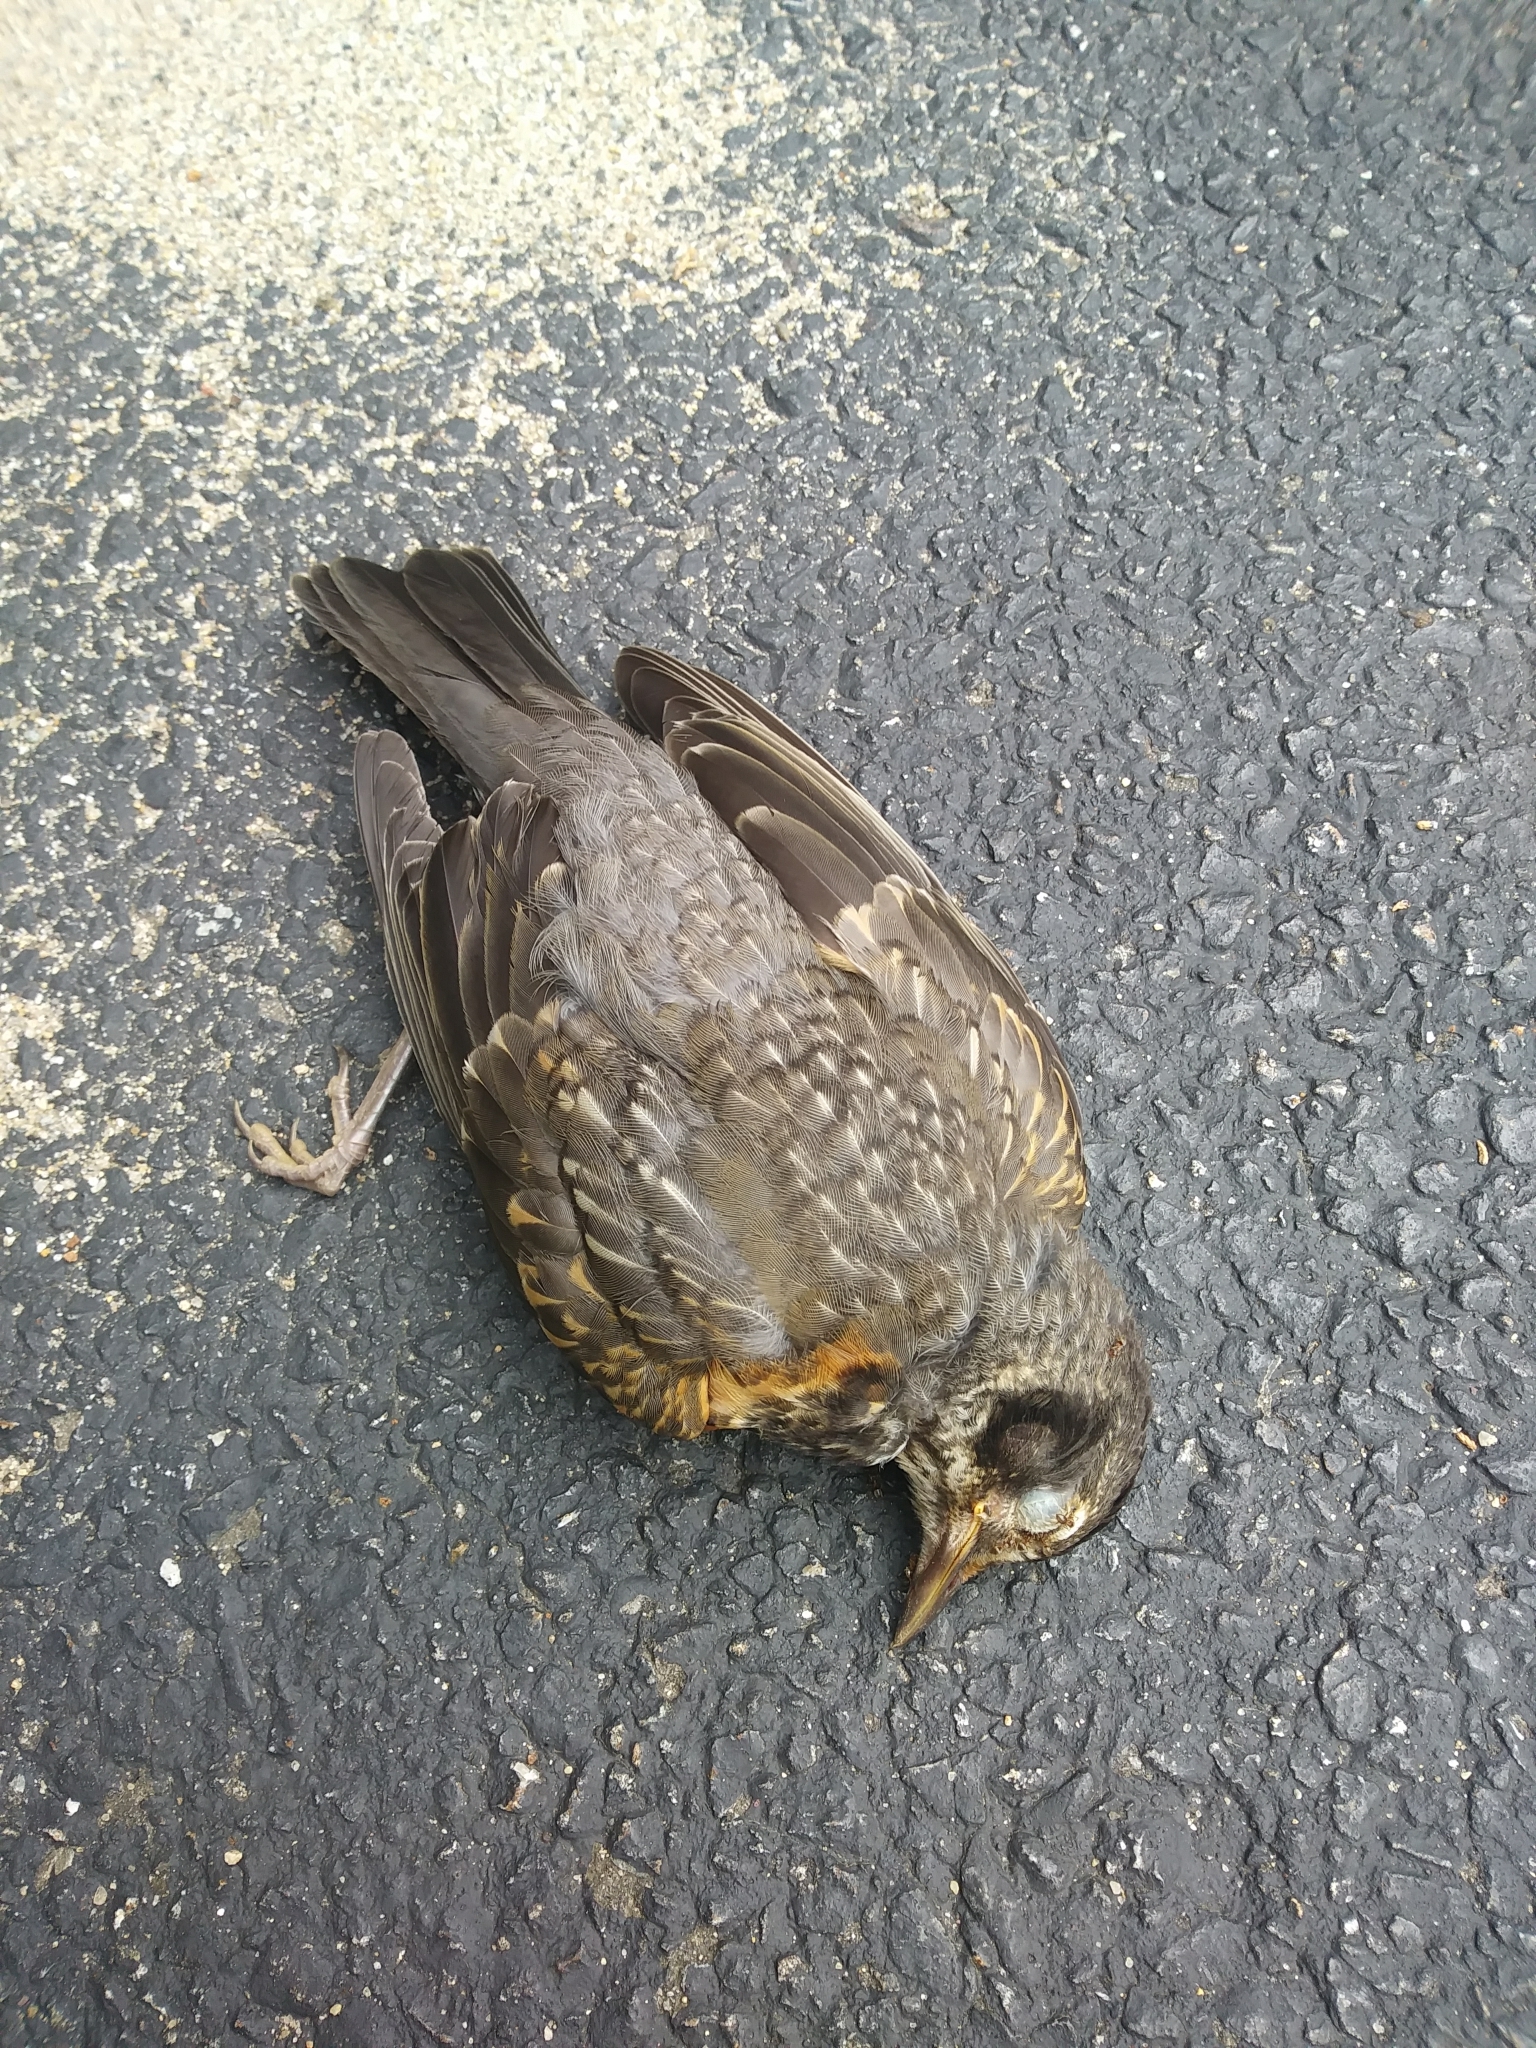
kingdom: Animalia
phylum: Chordata
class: Aves
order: Passeriformes
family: Turdidae
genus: Turdus
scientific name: Turdus migratorius
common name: American robin
